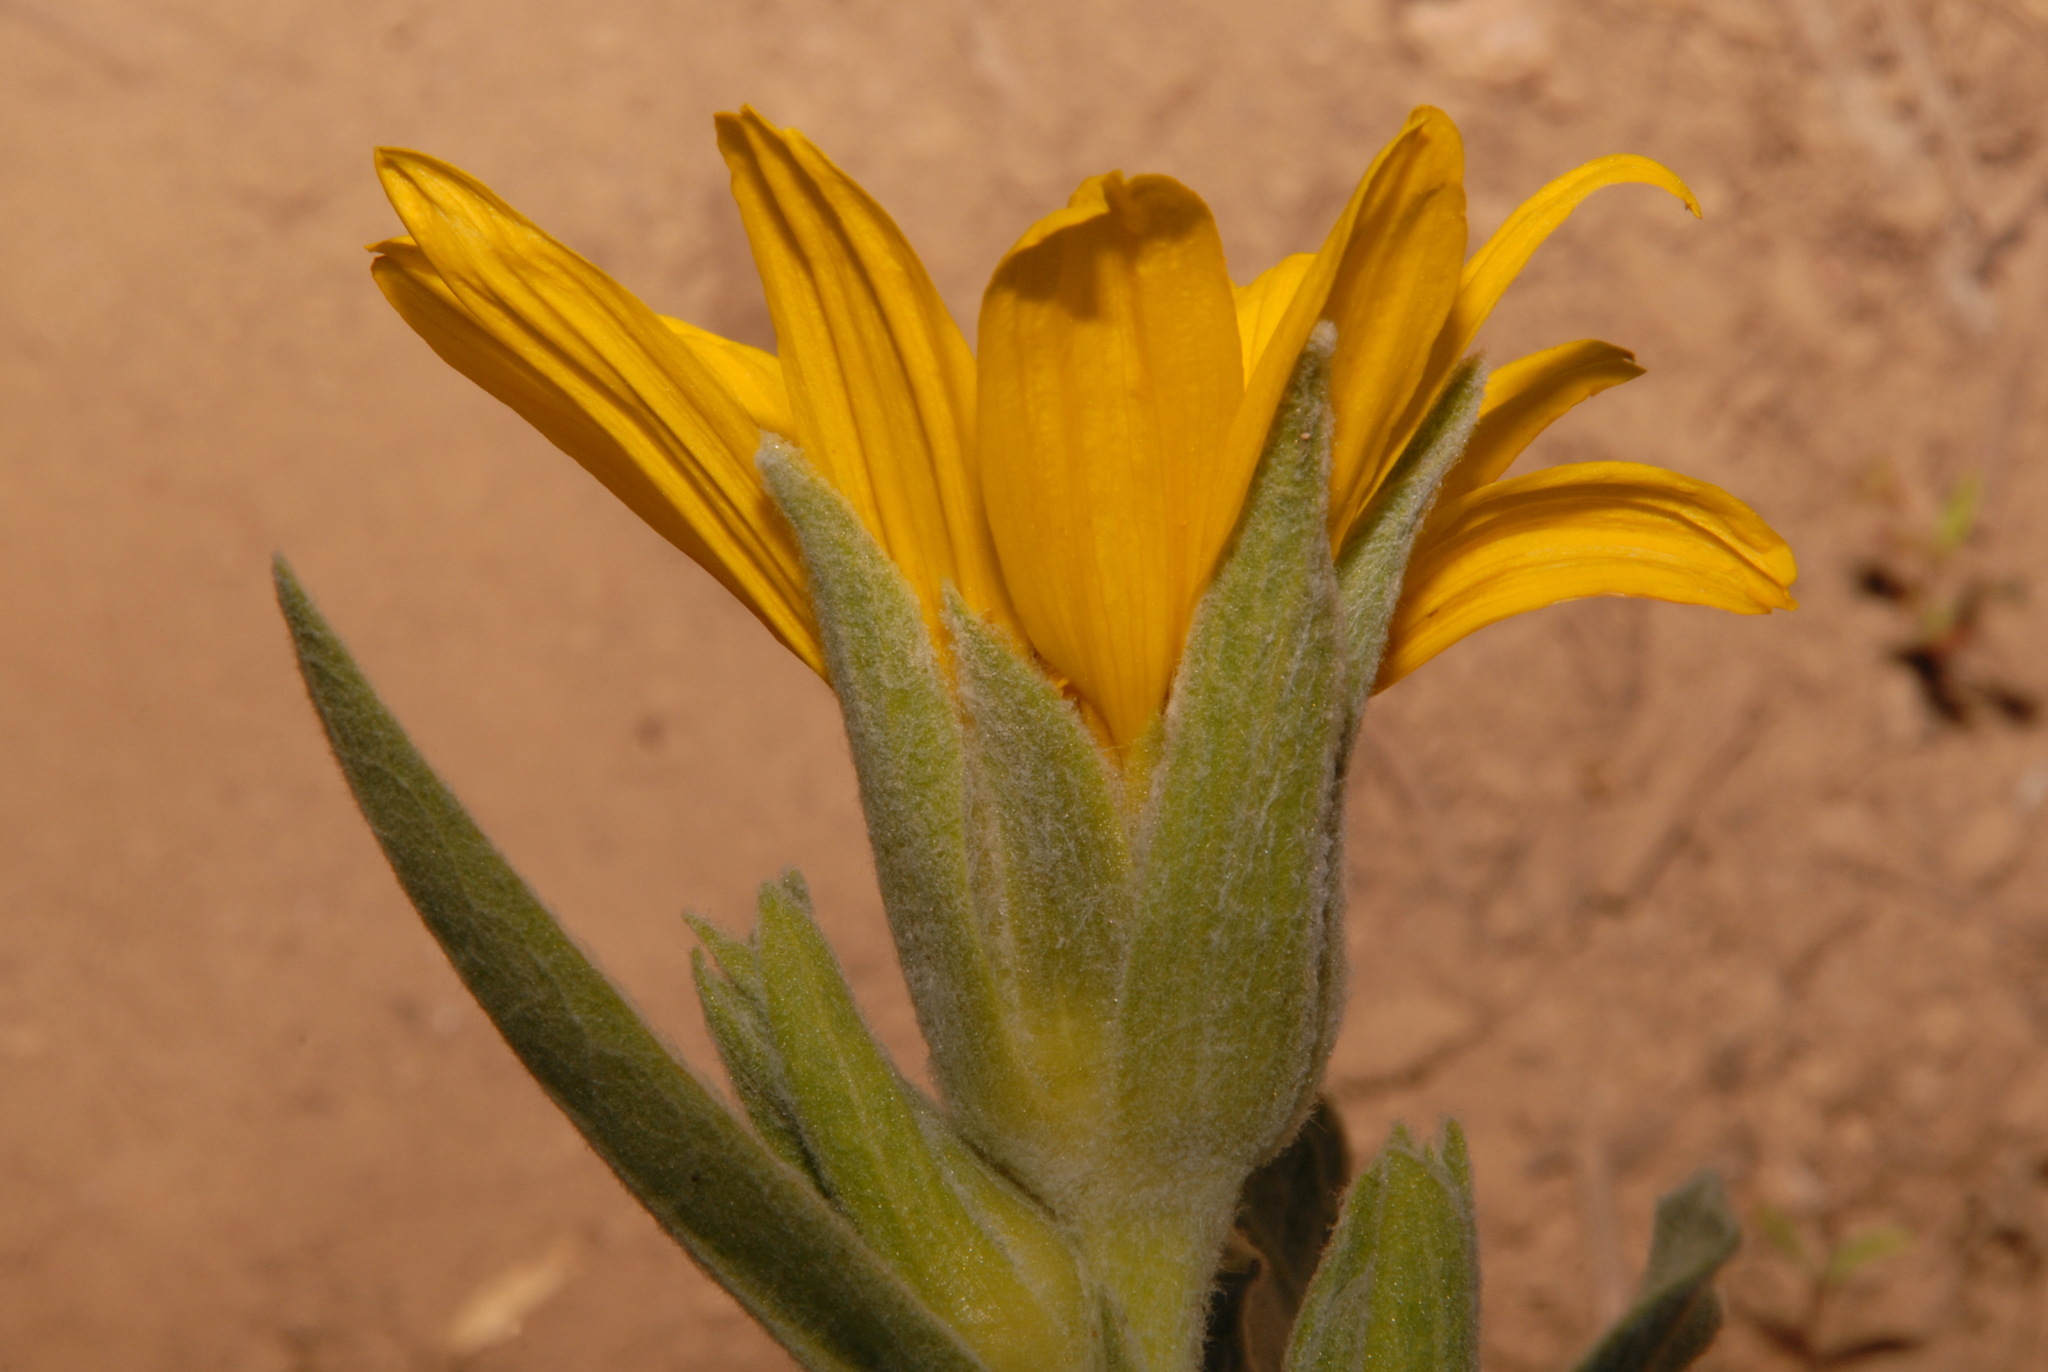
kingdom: Plantae
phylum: Tracheophyta
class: Magnoliopsida
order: Asterales
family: Asteraceae
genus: Wyethia
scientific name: Wyethia mollis
